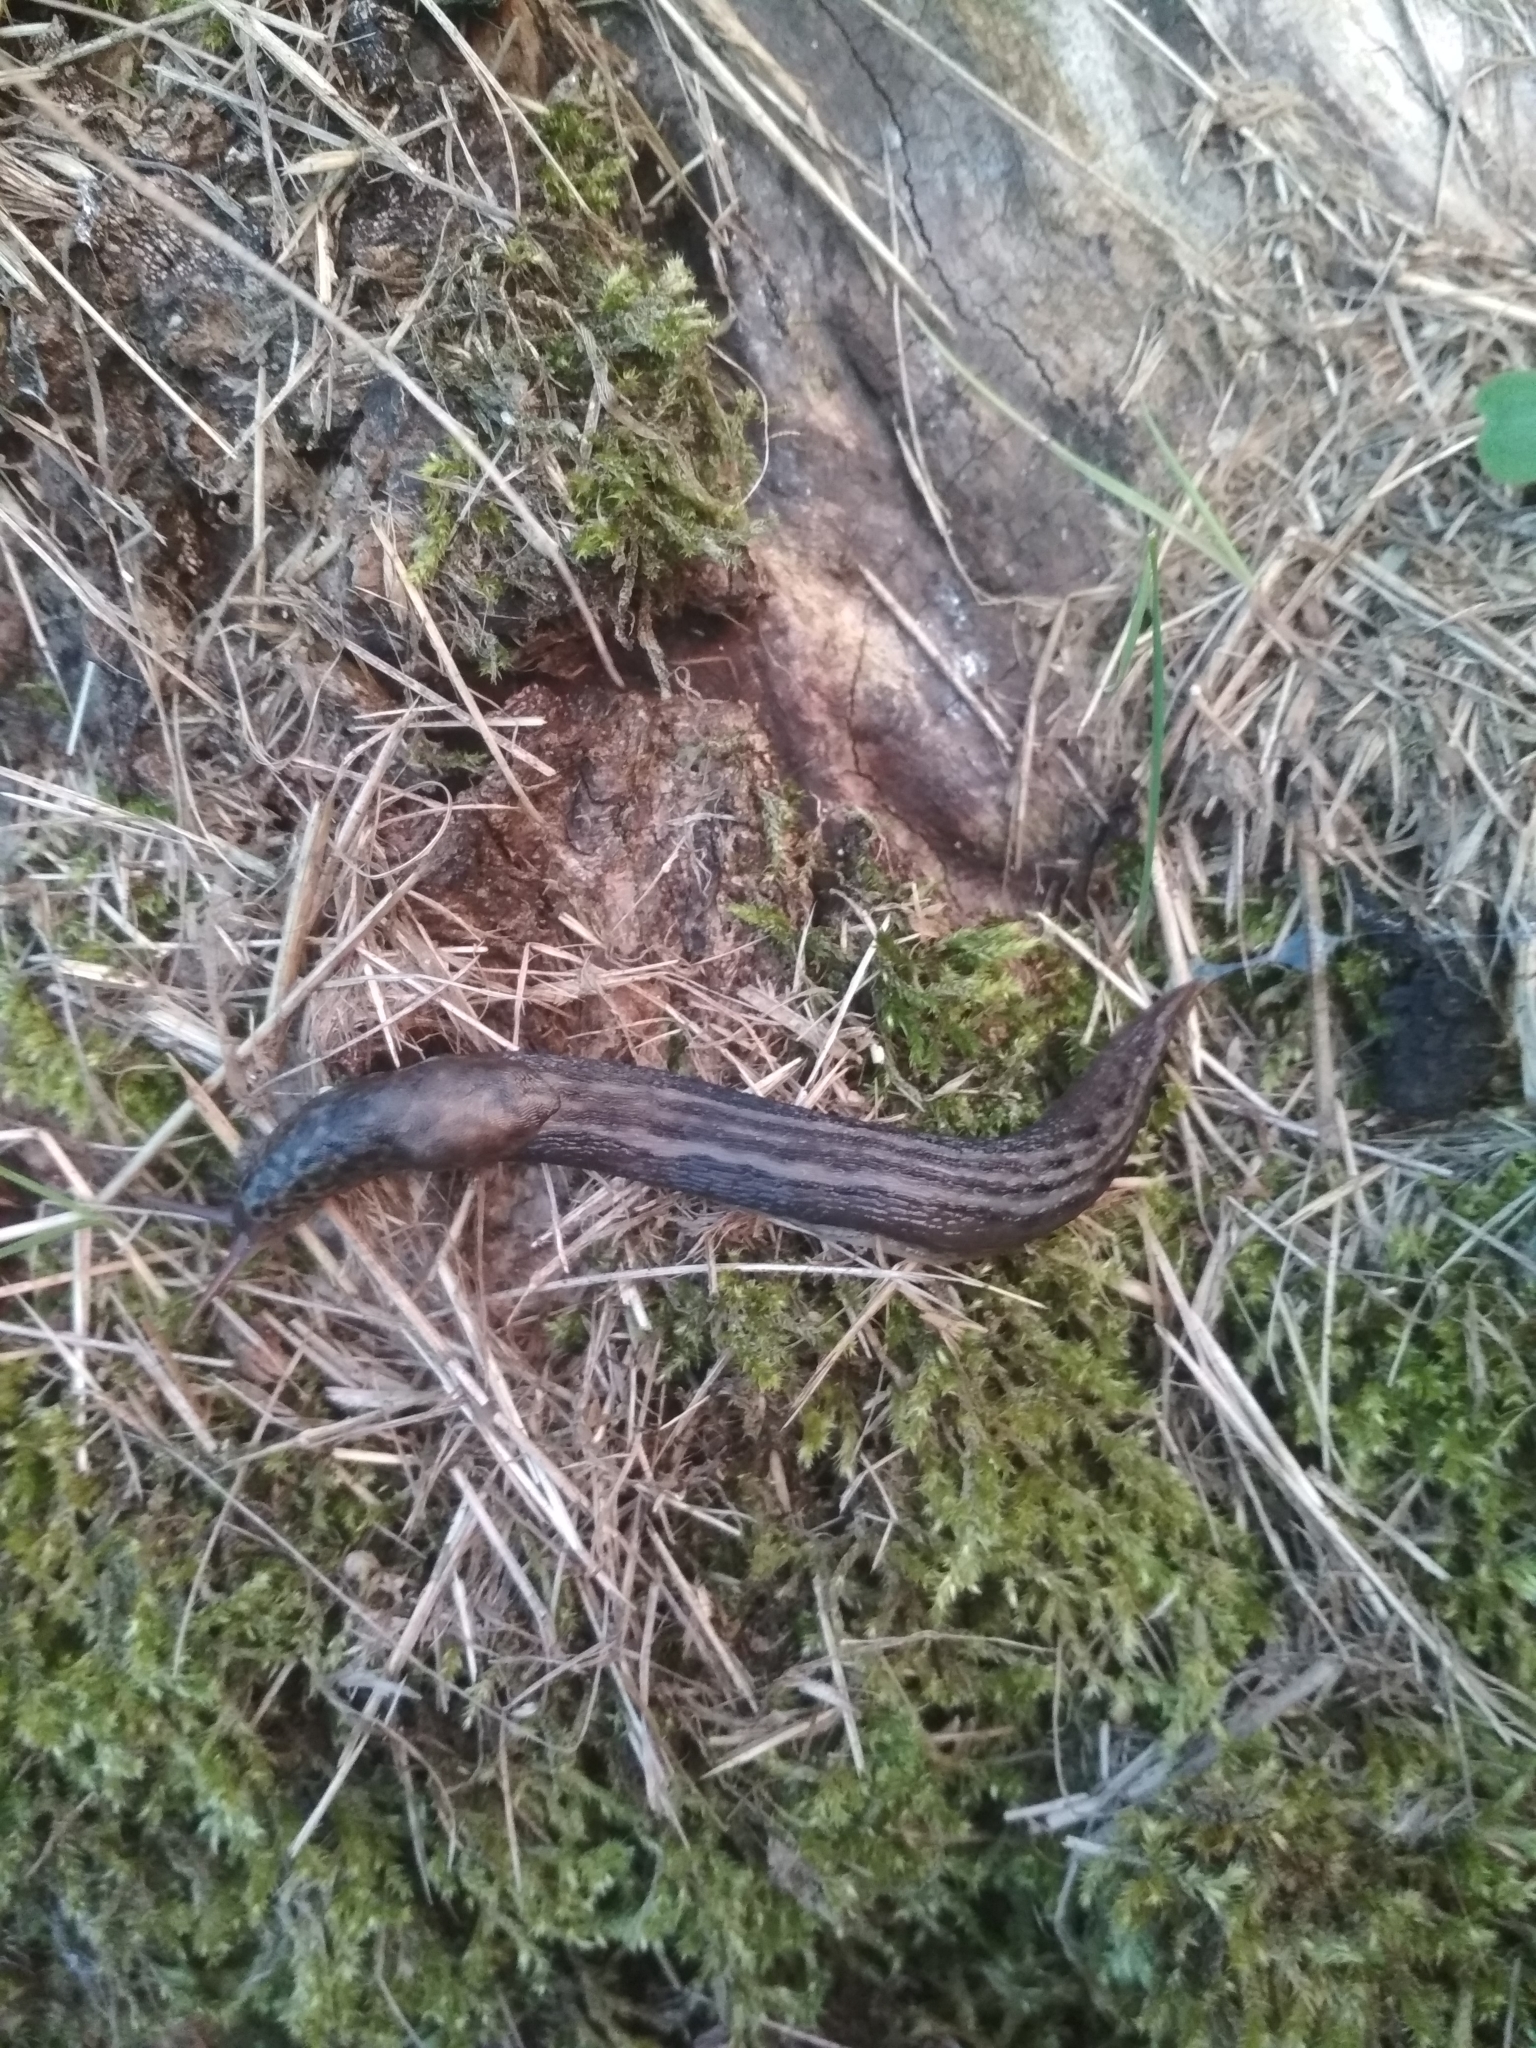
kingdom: Animalia
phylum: Mollusca
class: Gastropoda
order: Stylommatophora
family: Limacidae
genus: Limax
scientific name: Limax maximus
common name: Great grey slug
